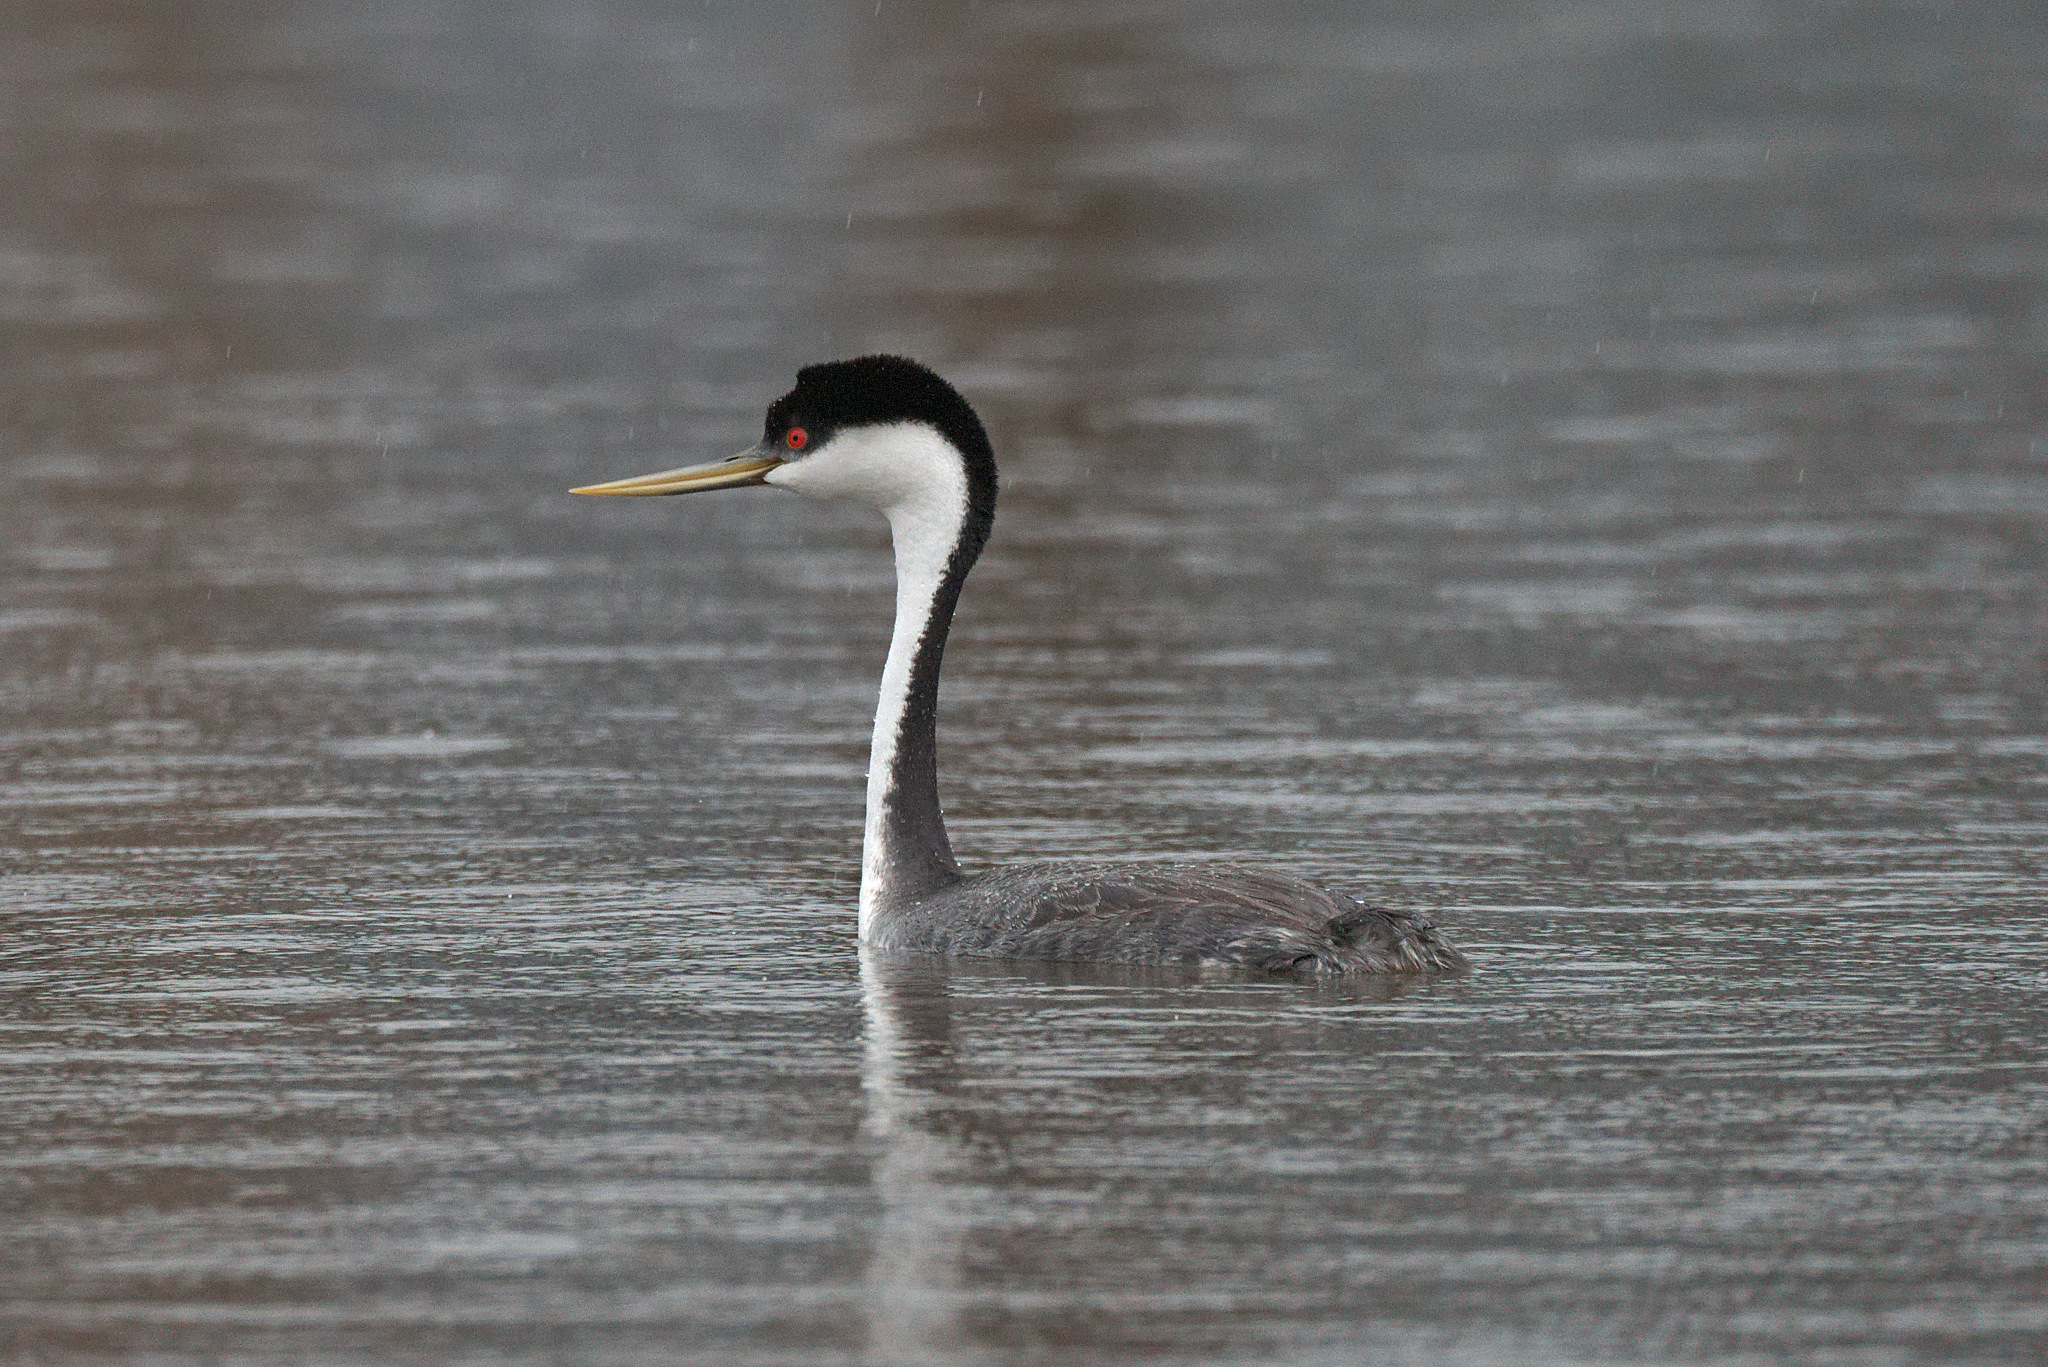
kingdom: Animalia
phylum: Chordata
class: Aves
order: Podicipediformes
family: Podicipedidae
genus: Aechmophorus
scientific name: Aechmophorus occidentalis
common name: Western grebe
